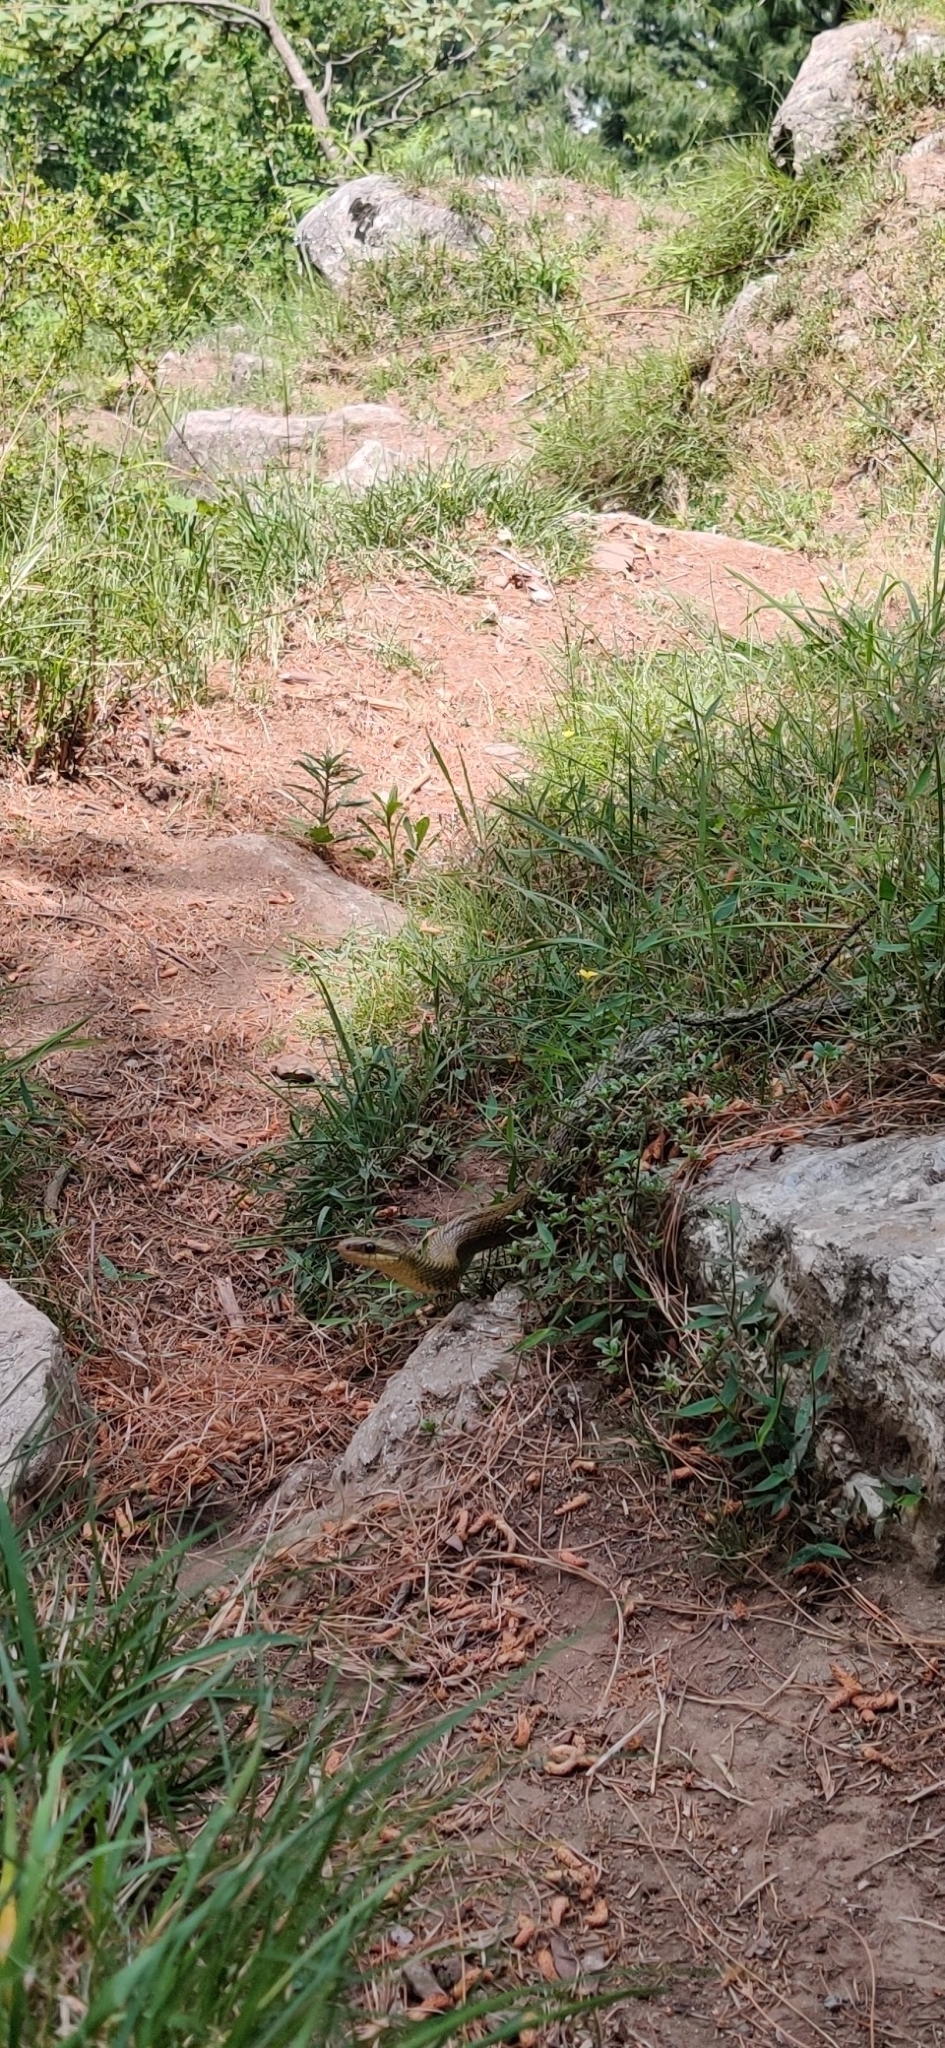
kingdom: Animalia
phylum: Chordata
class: Squamata
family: Colubridae
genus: Elaphe
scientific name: Elaphe hodgsoni
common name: English common name not available
